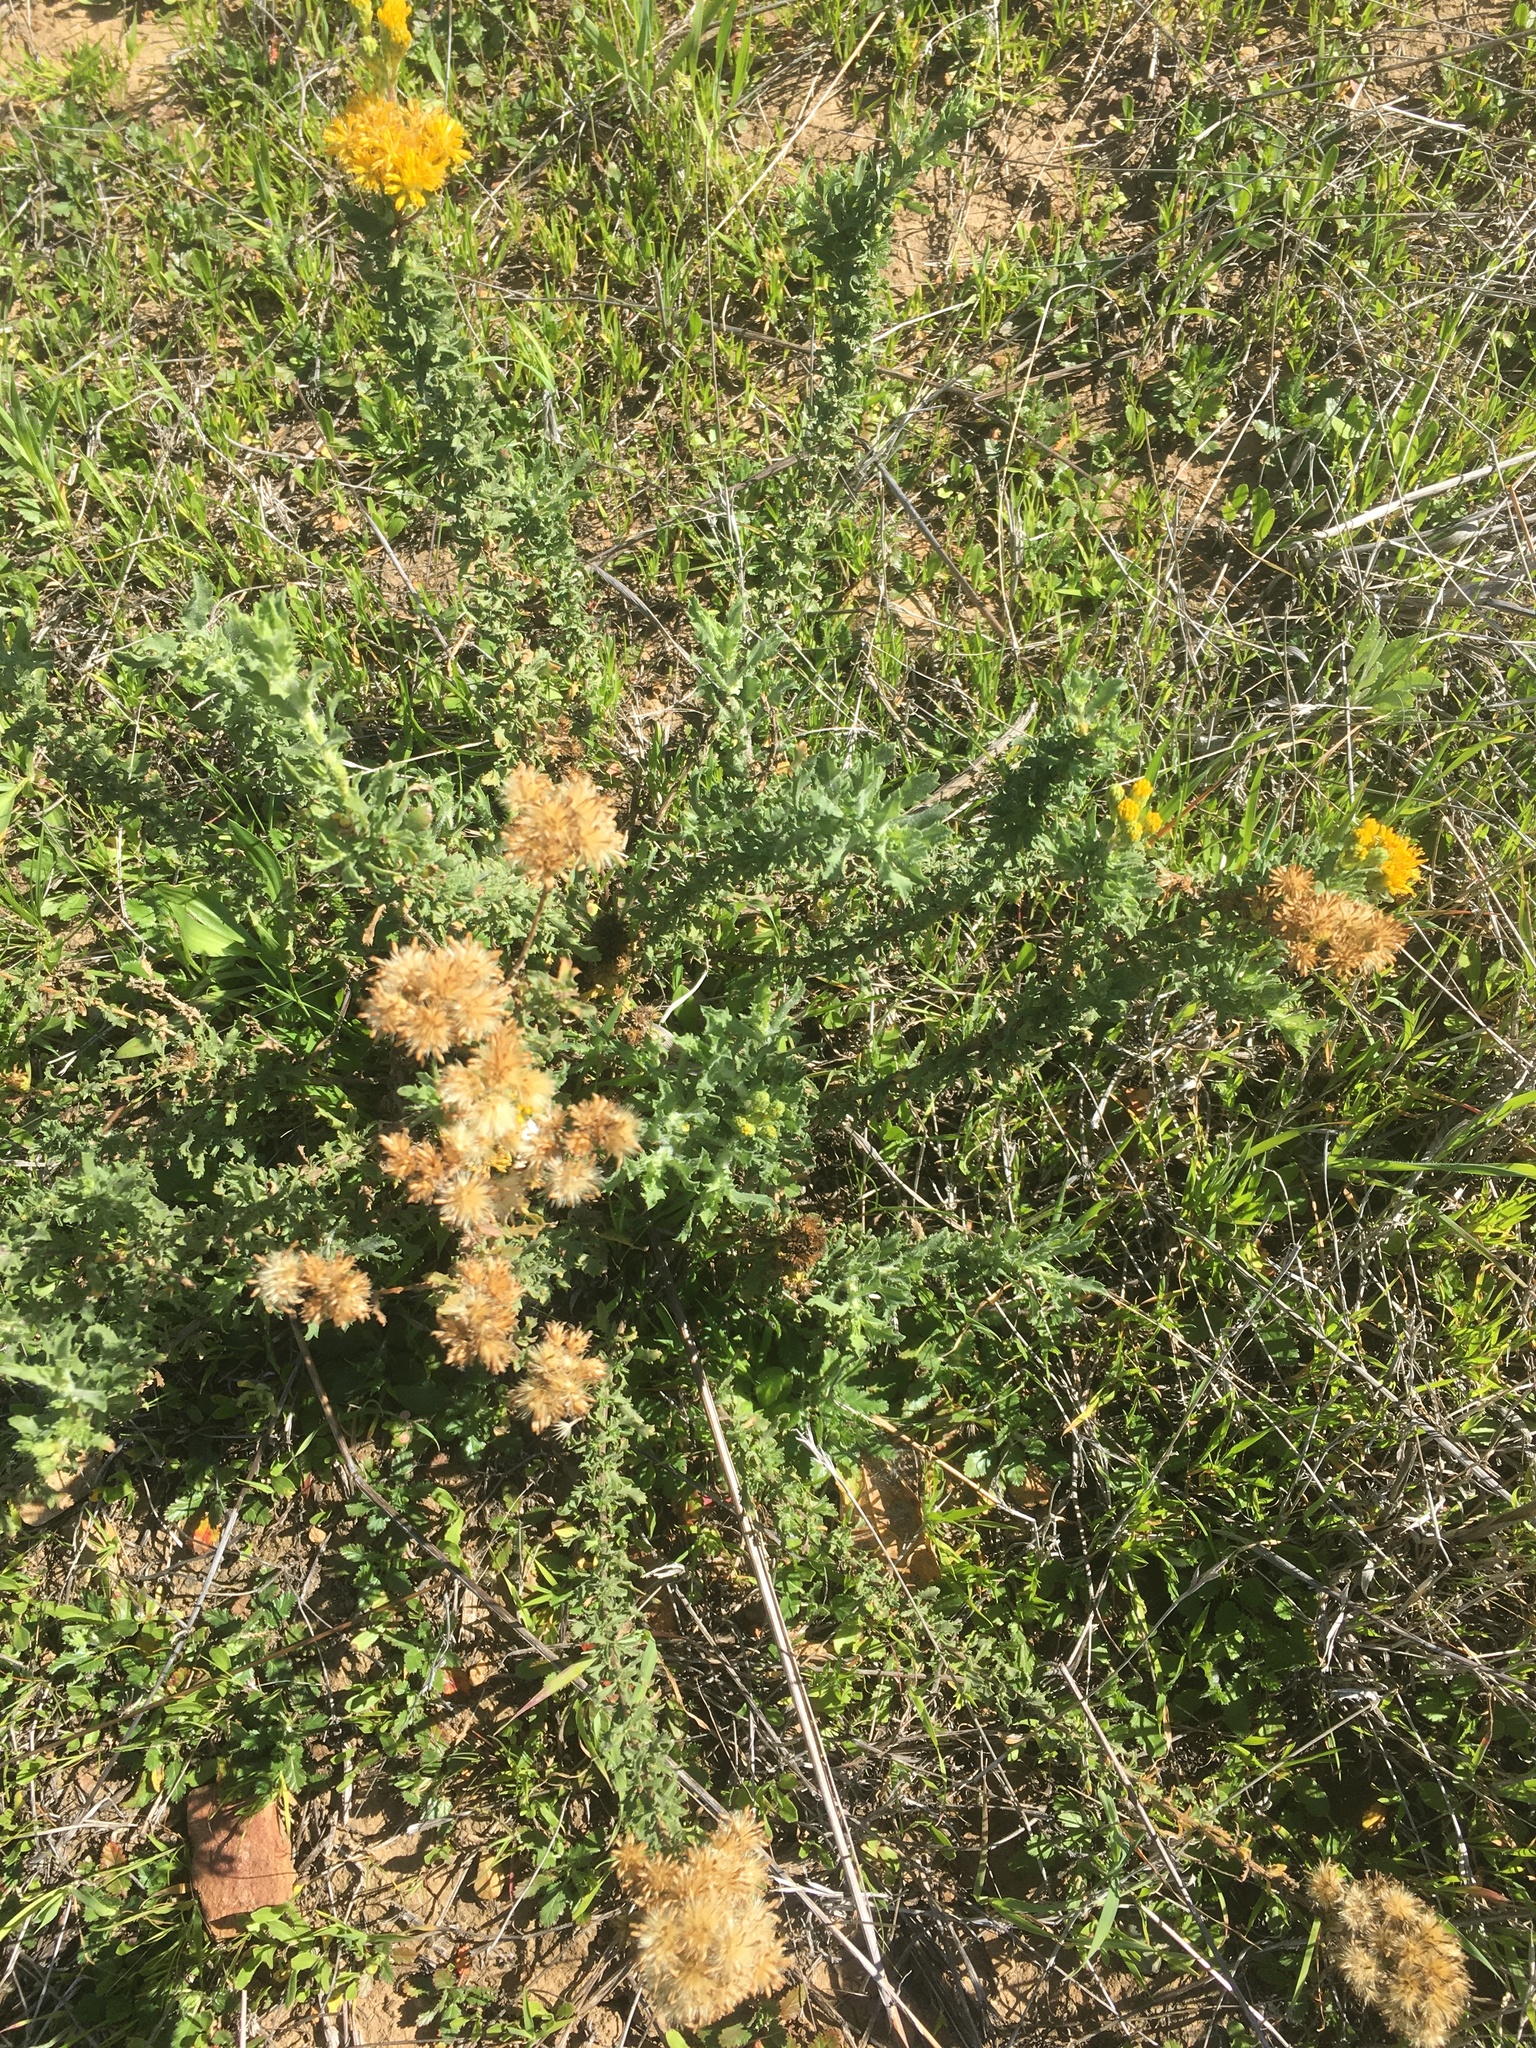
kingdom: Plantae
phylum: Tracheophyta
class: Magnoliopsida
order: Asterales
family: Asteraceae
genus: Isocoma
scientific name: Isocoma menziesii
